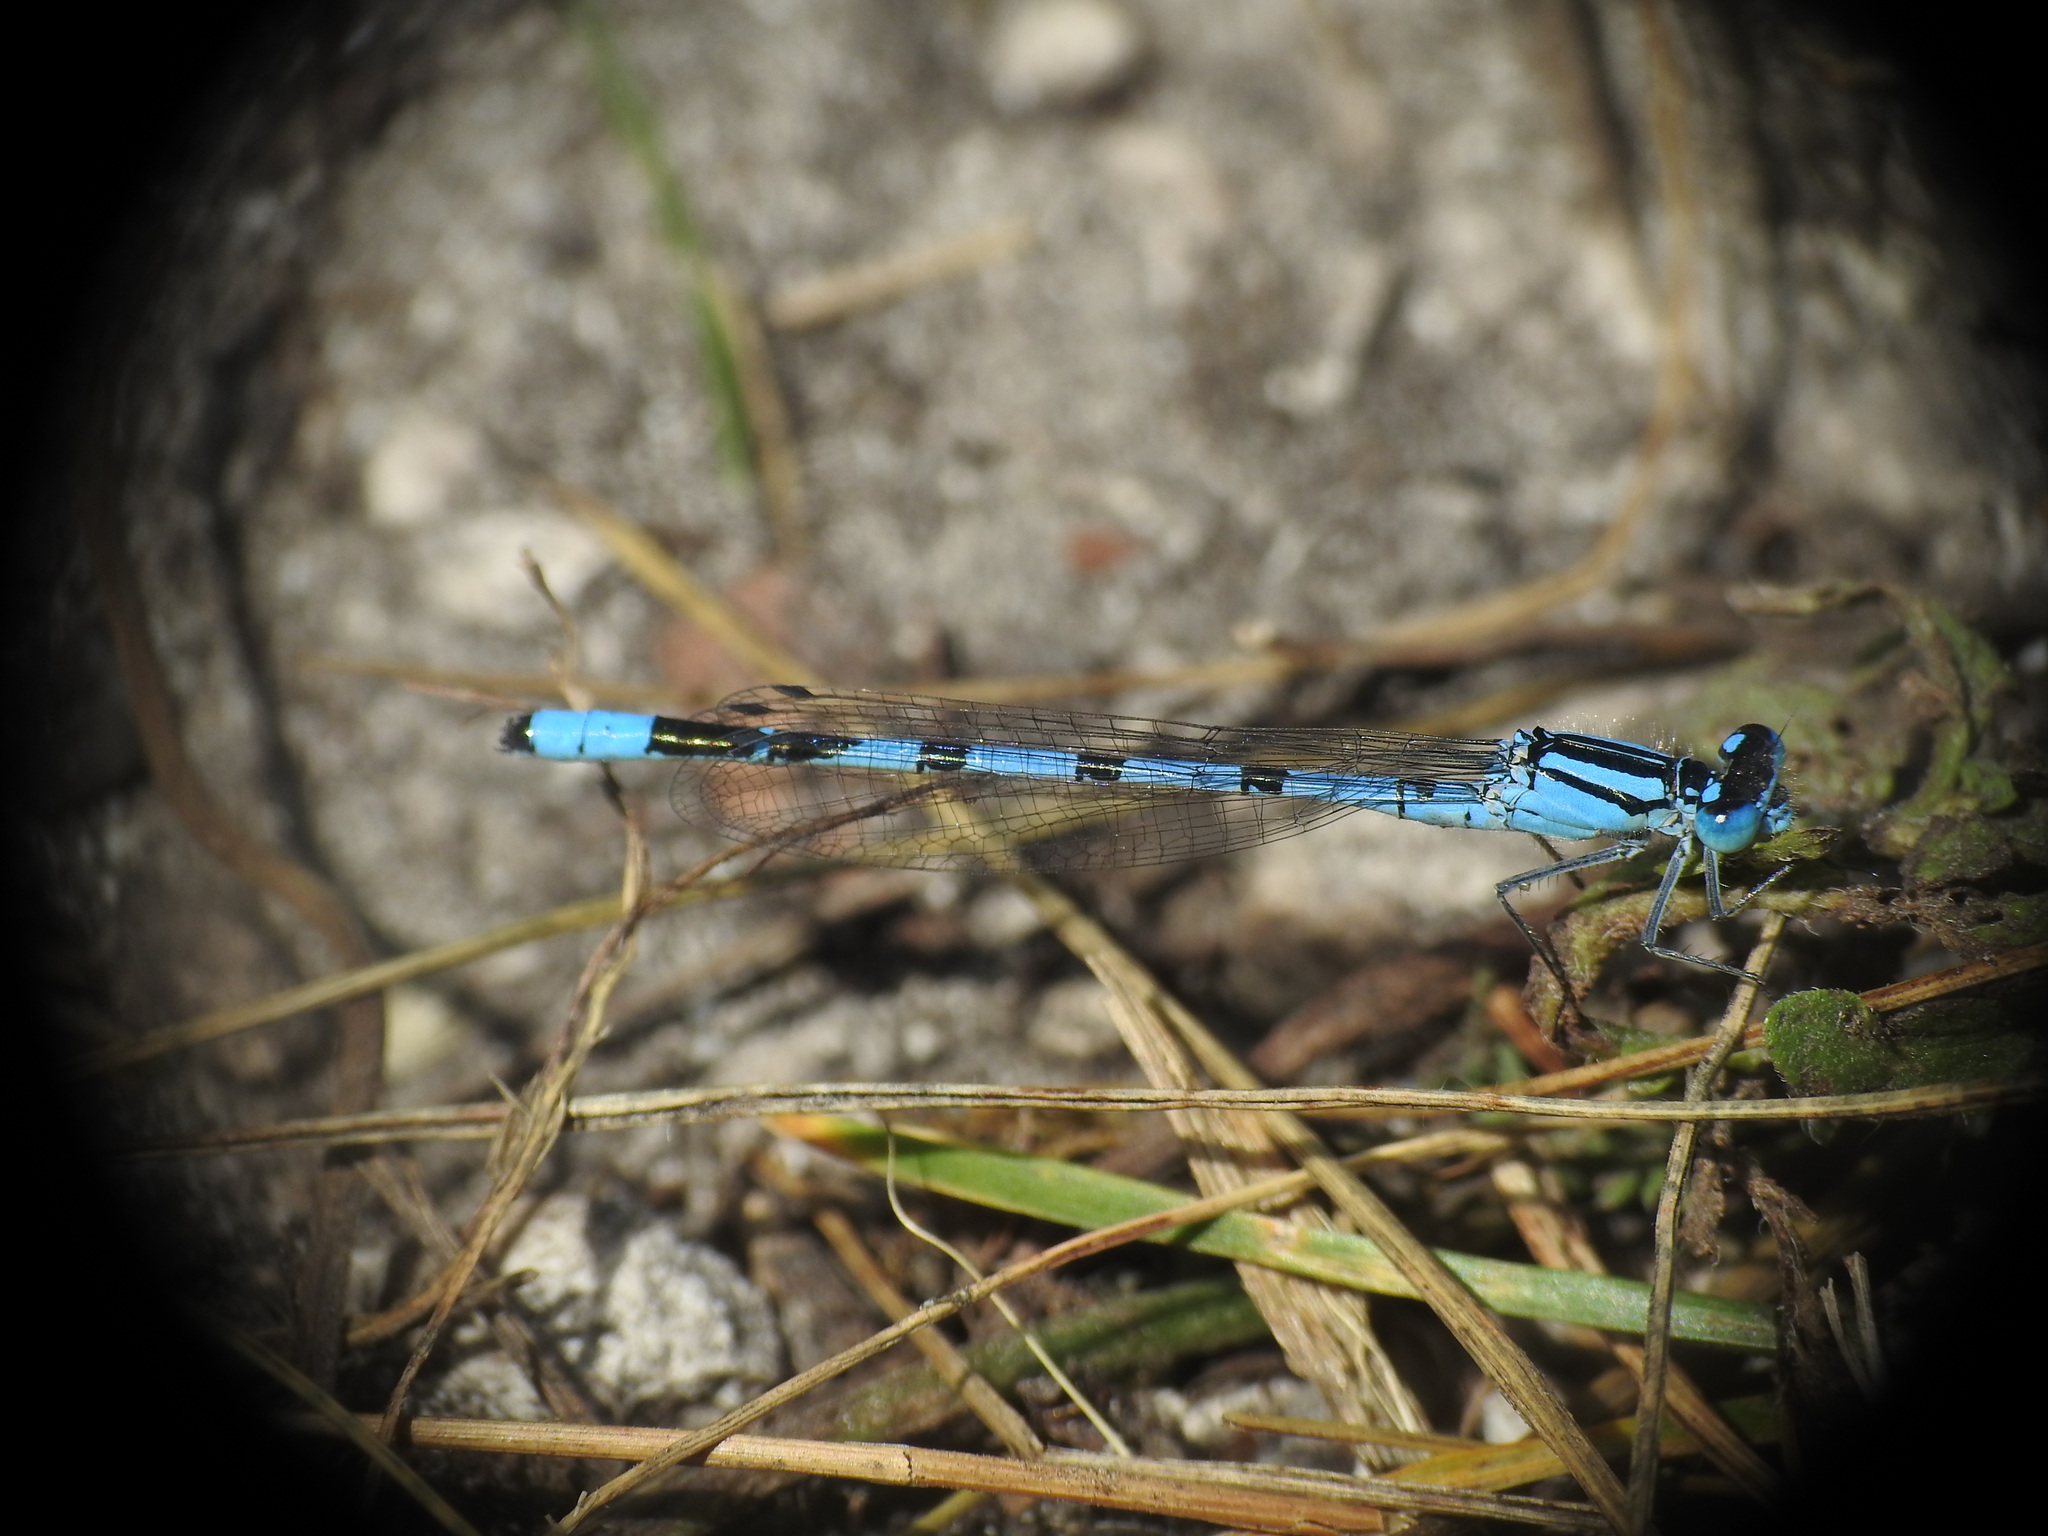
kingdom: Animalia
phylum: Arthropoda
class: Insecta
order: Odonata
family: Coenagrionidae
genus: Enallagma
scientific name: Enallagma cyathigerum
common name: Common blue damselfly
